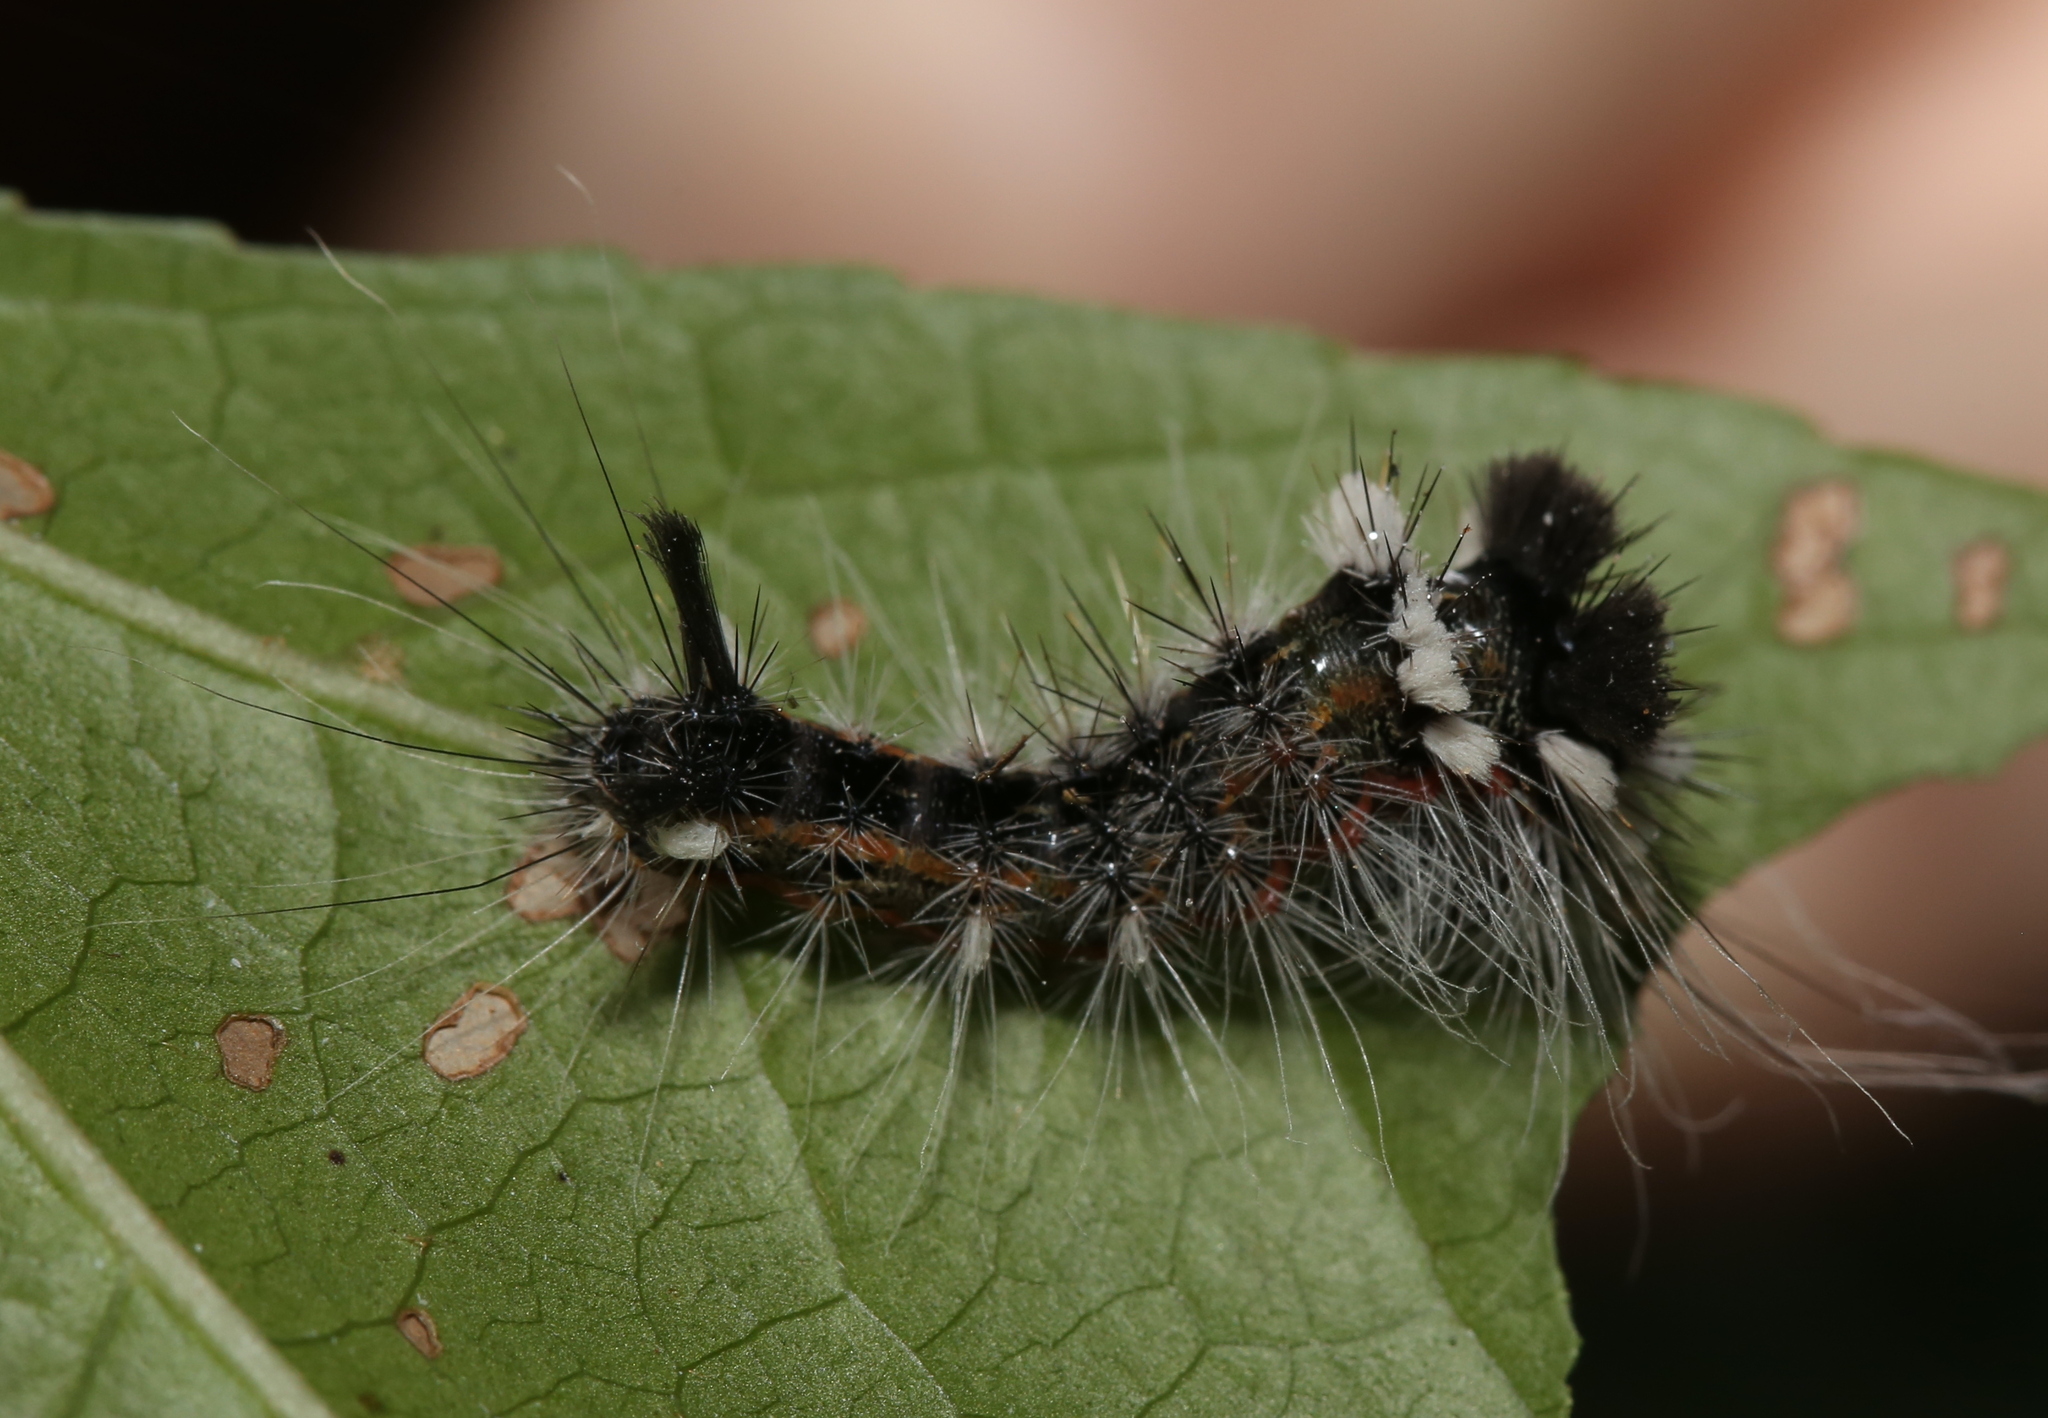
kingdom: Animalia
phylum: Arthropoda
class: Insecta
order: Lepidoptera
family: Noctuidae
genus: Acronicta
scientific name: Acronicta impleta
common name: Powdered dagger
